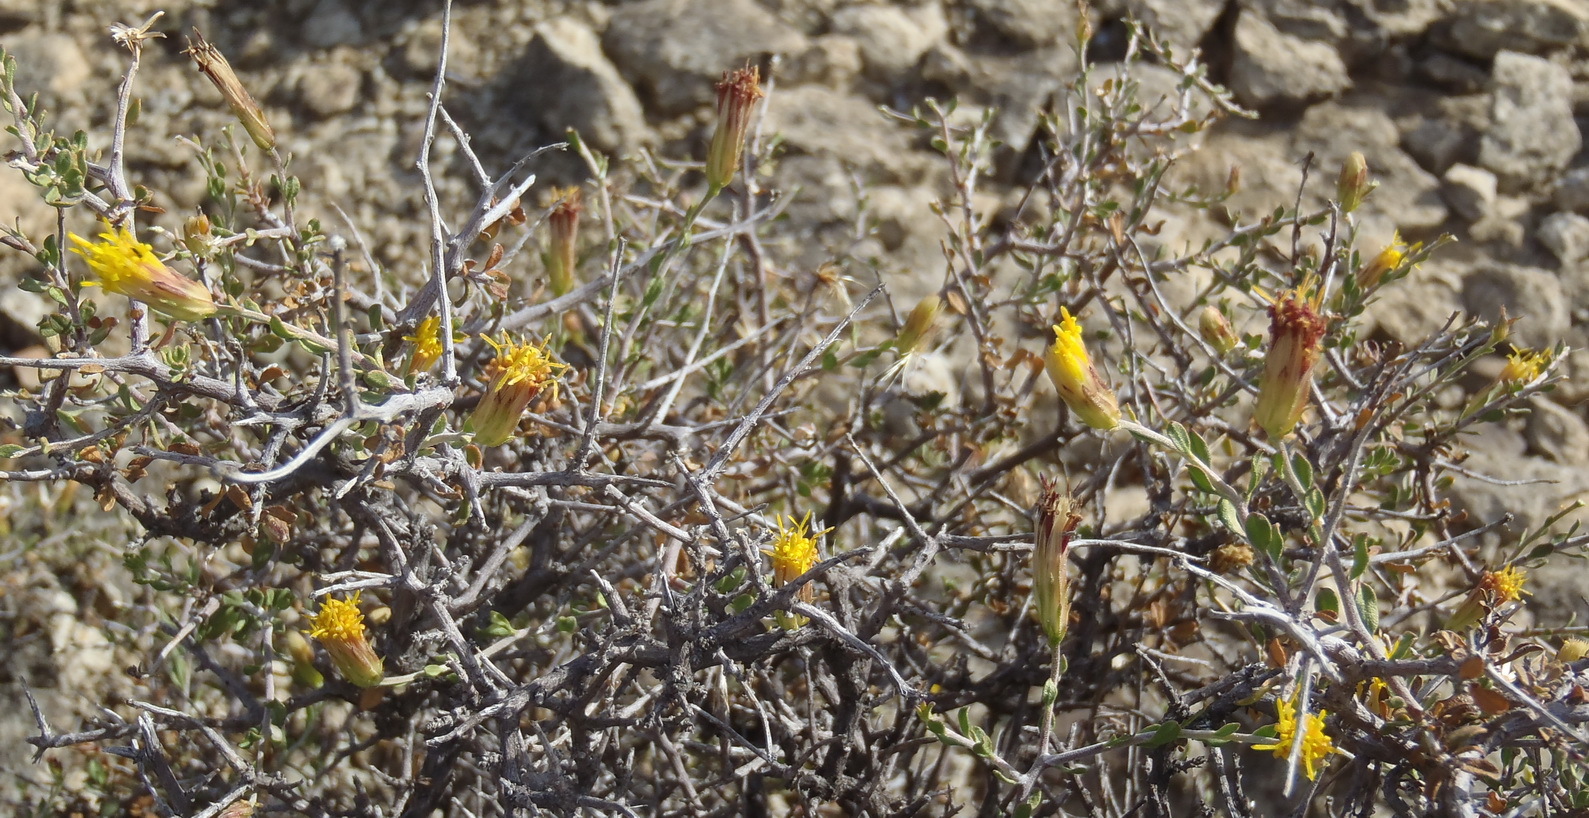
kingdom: Plantae
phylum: Tracheophyta
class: Magnoliopsida
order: Asterales
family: Asteraceae
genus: Pegolettia
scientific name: Pegolettia retrofracta
